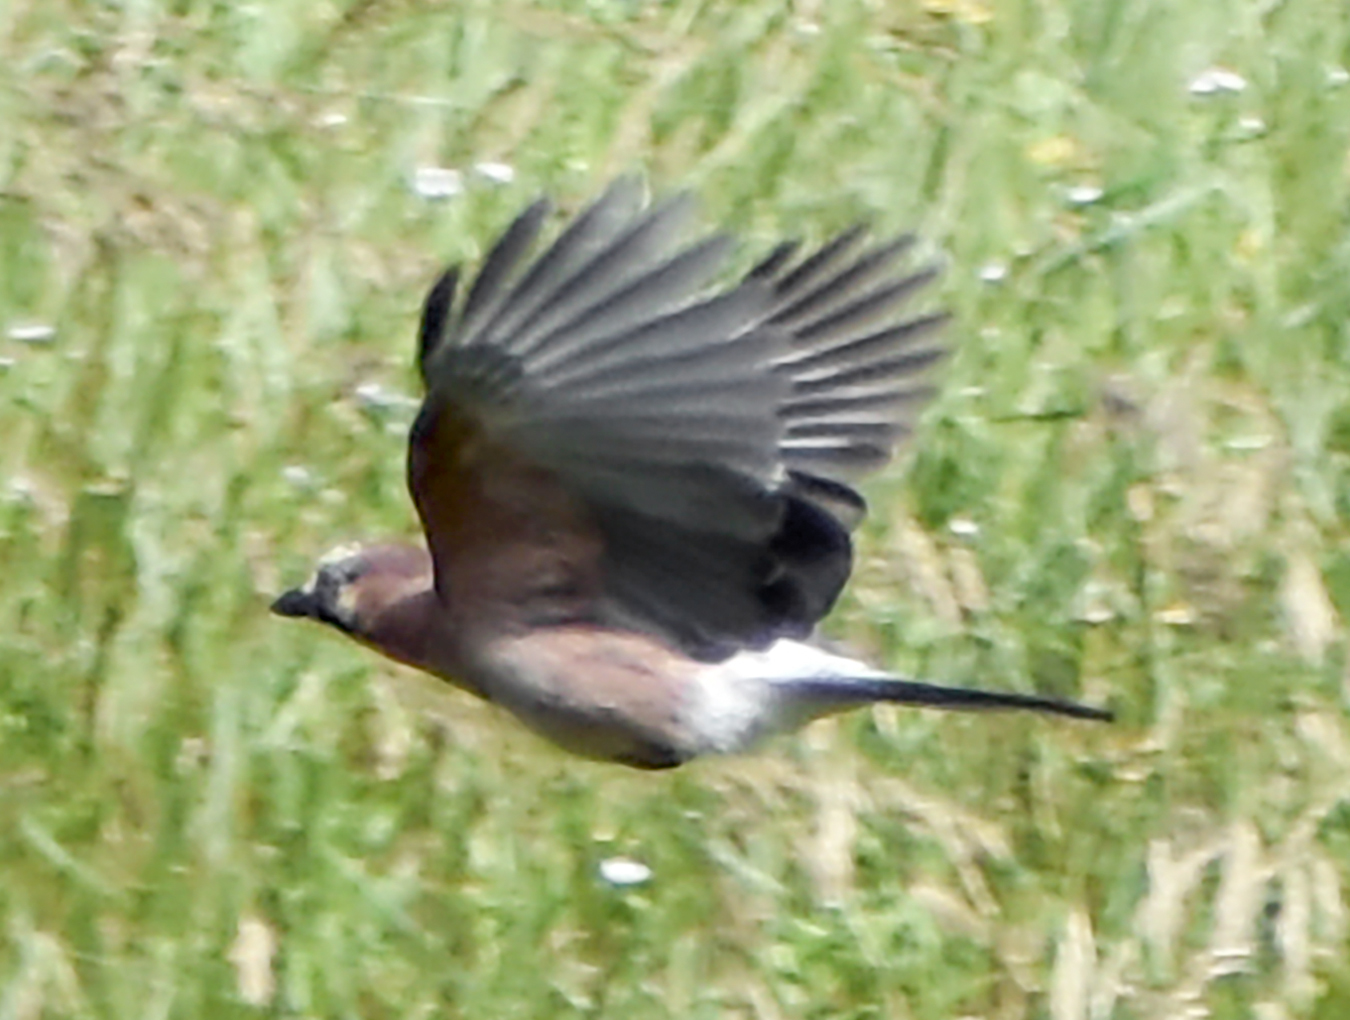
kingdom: Animalia
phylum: Chordata
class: Aves
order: Passeriformes
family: Corvidae
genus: Garrulus
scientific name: Garrulus glandarius
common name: Eurasian jay
